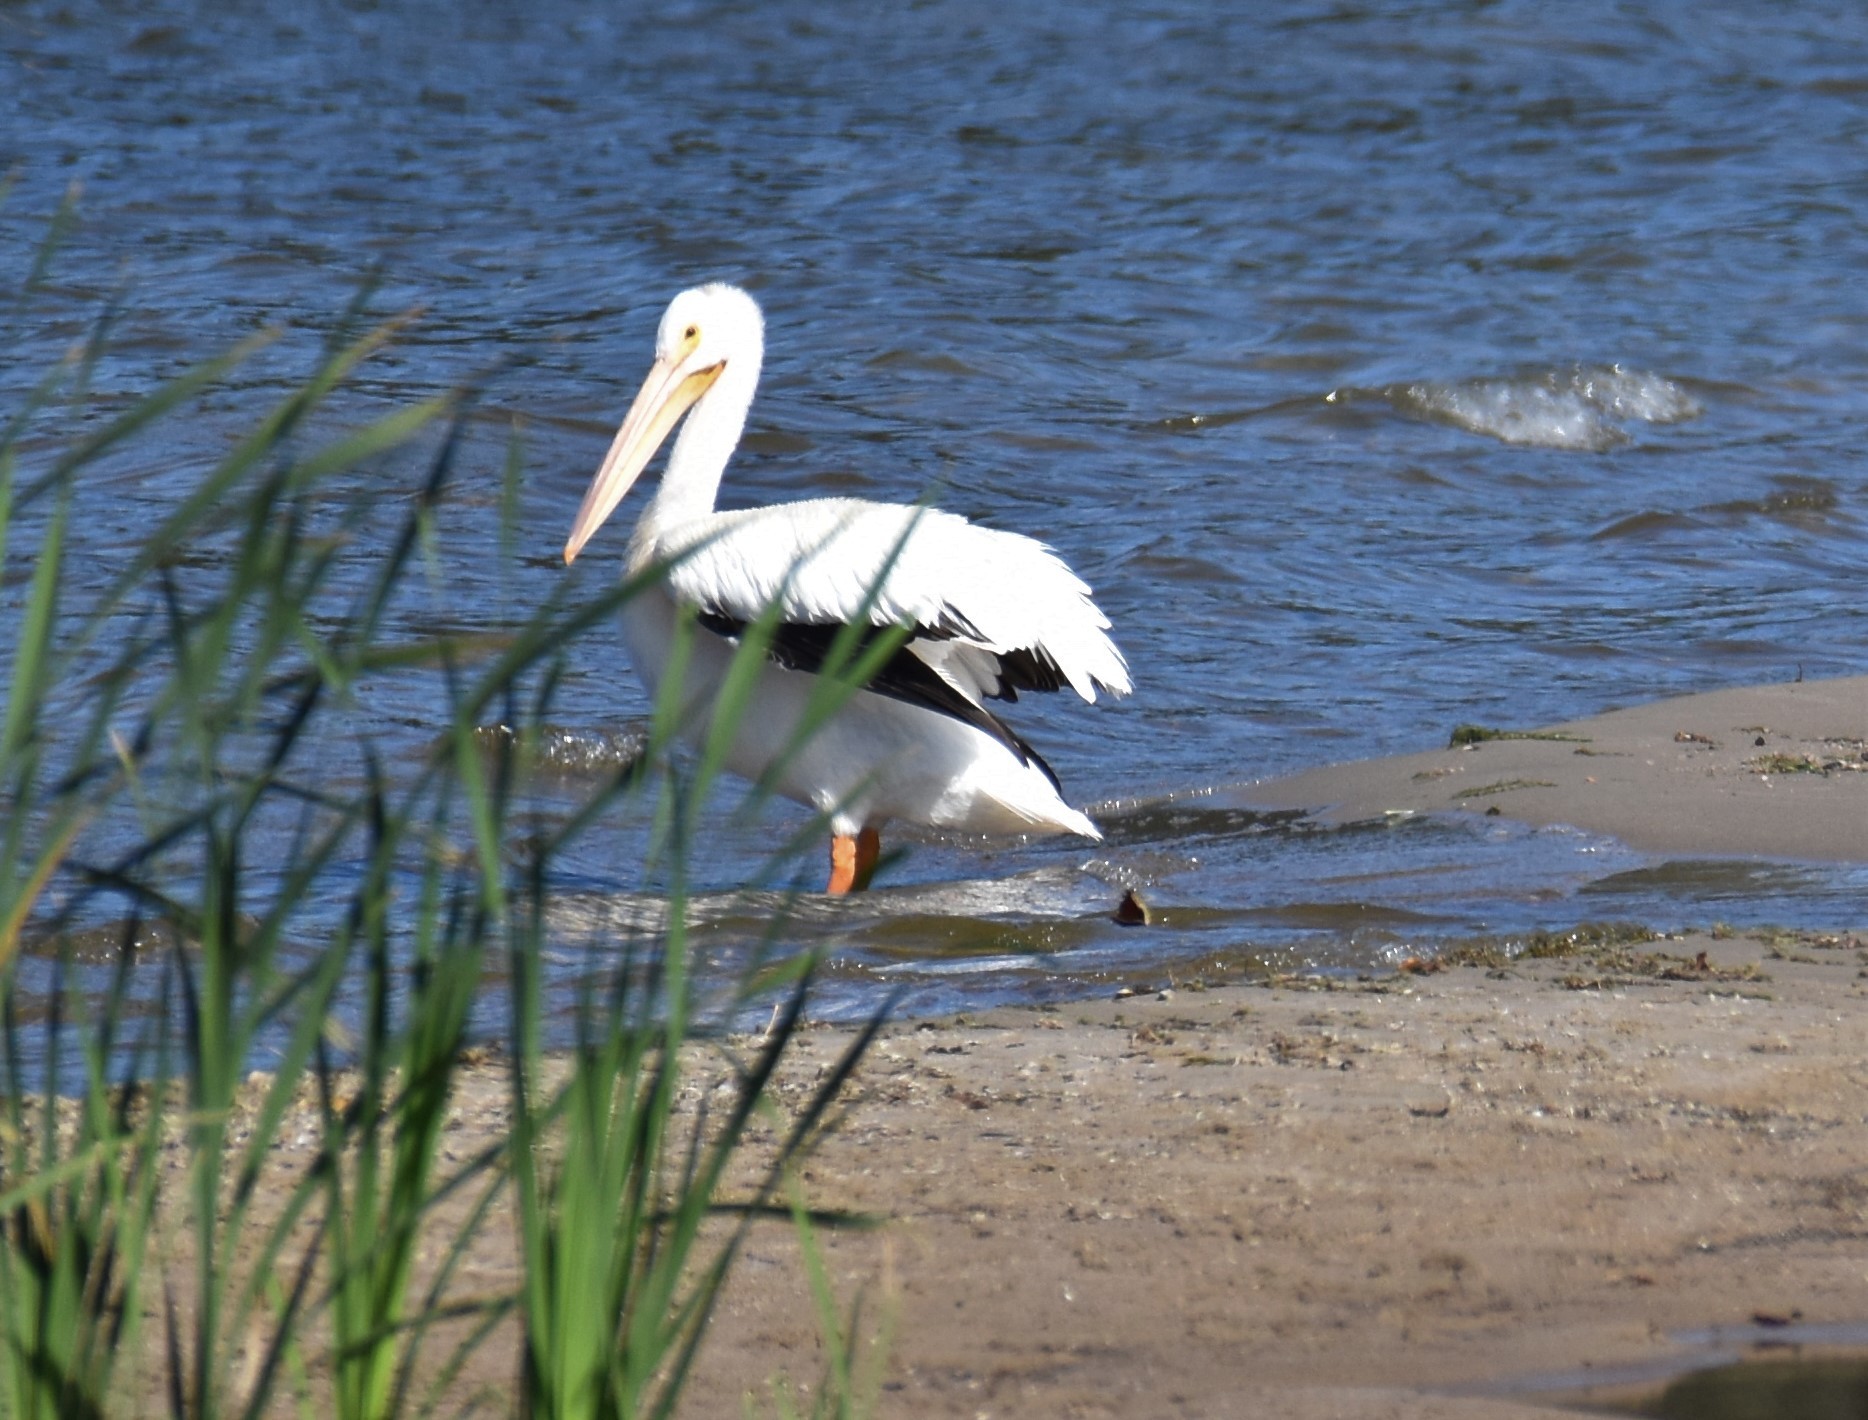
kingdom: Animalia
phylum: Chordata
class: Aves
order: Pelecaniformes
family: Pelecanidae
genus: Pelecanus
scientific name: Pelecanus erythrorhynchos
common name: American white pelican
